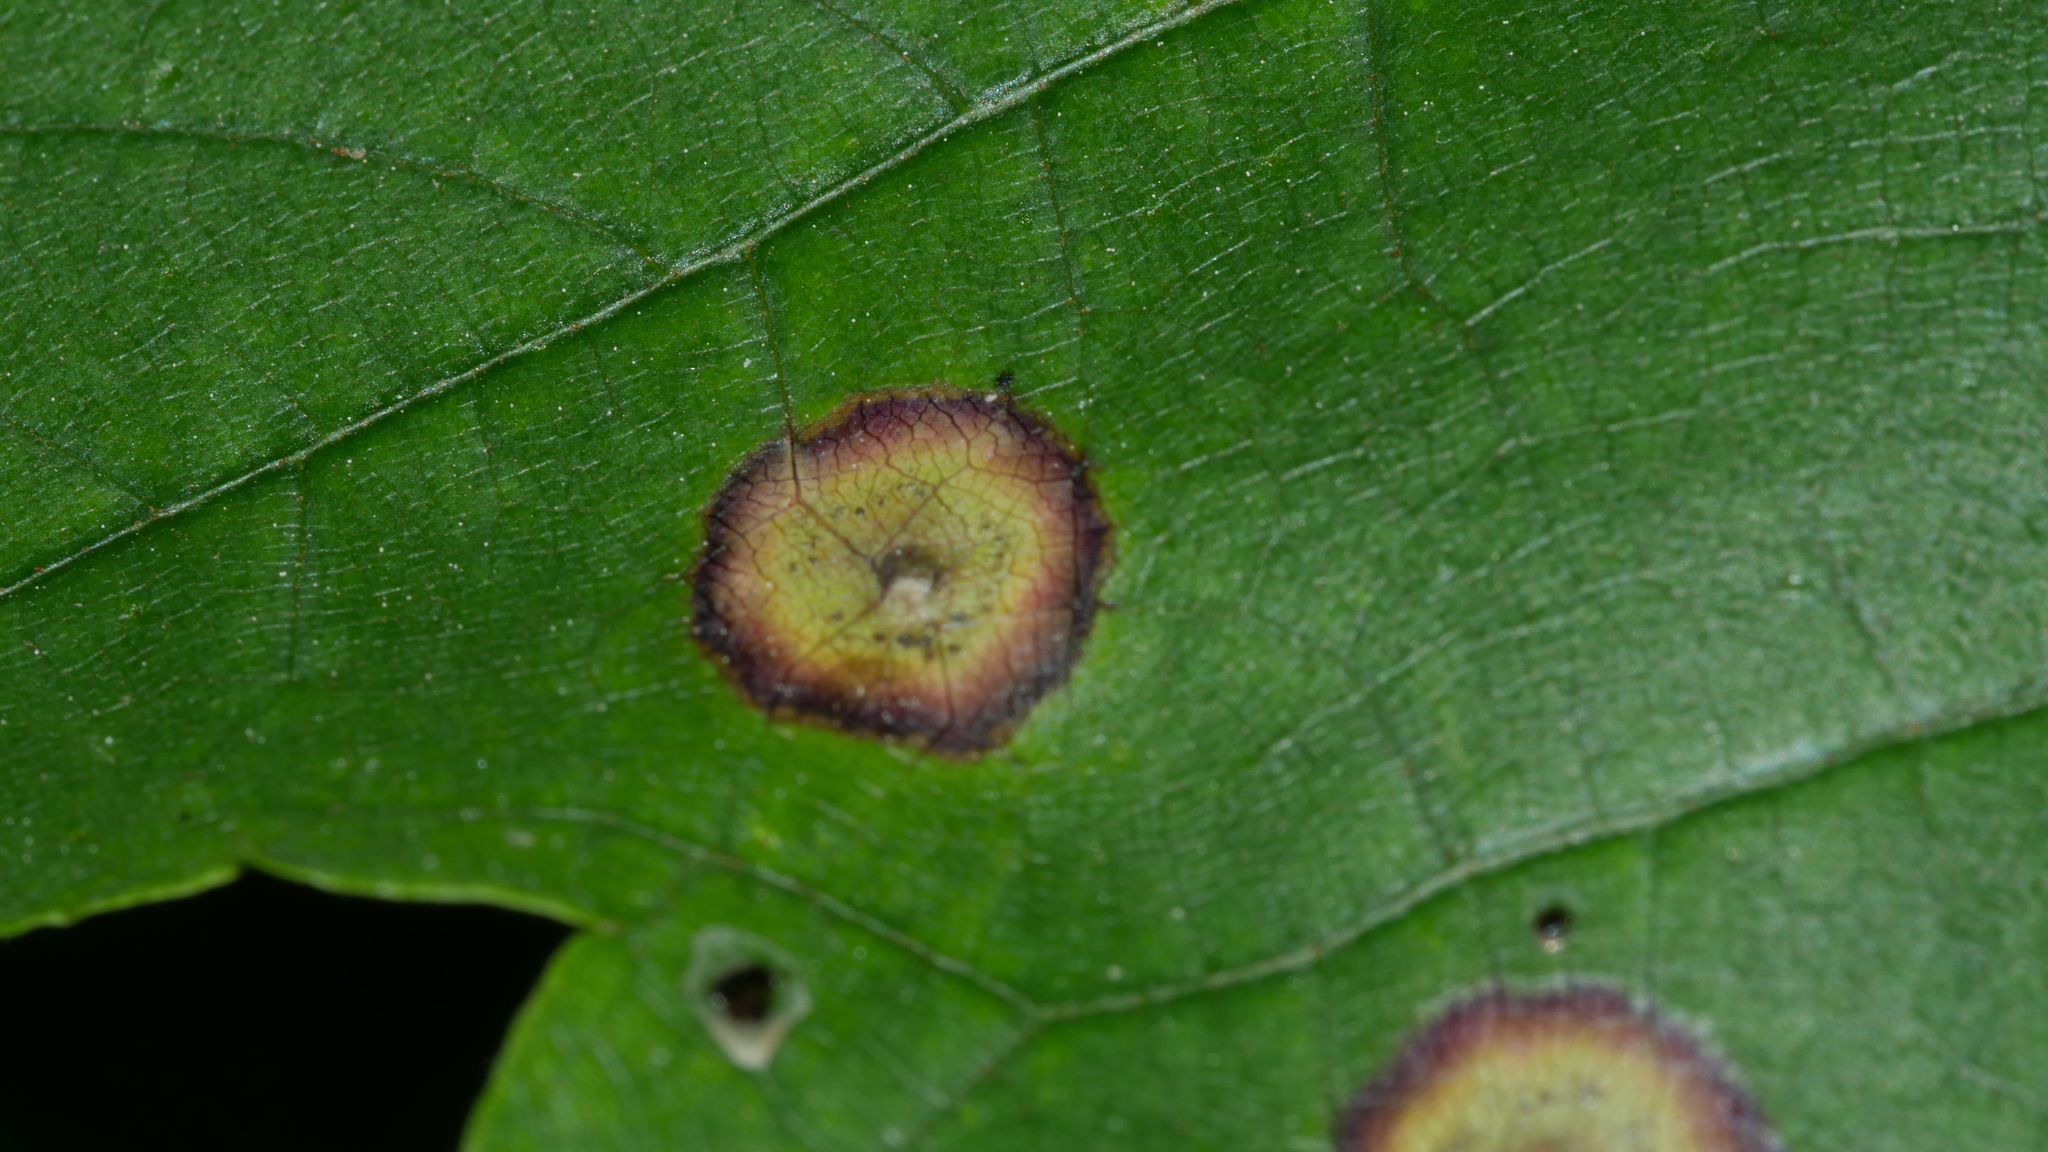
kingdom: Animalia
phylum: Arthropoda
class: Insecta
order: Diptera
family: Cecidomyiidae
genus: Acericecis
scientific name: Acericecis ocellaris
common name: Ocellate gall midge
